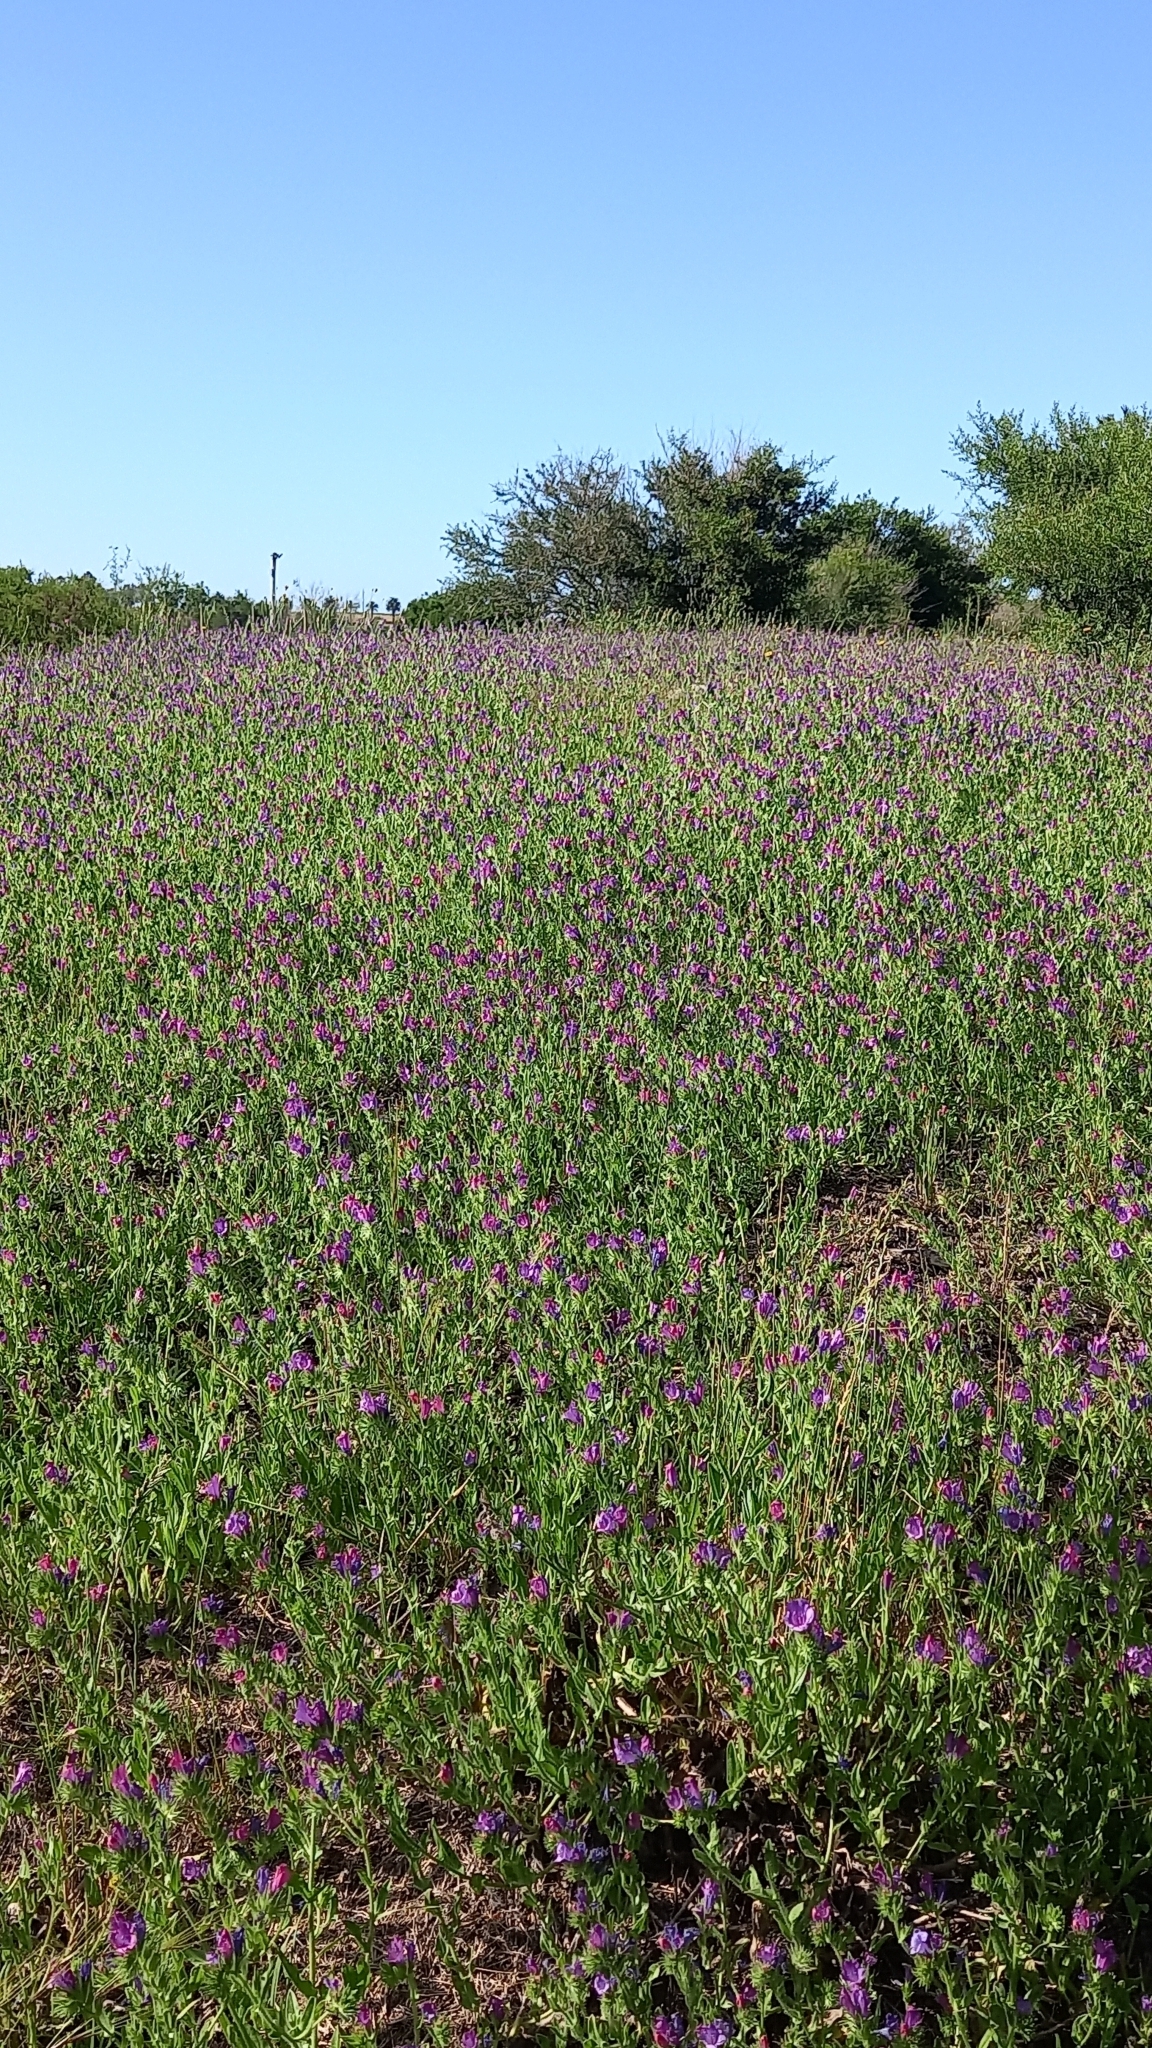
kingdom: Plantae
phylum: Tracheophyta
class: Magnoliopsida
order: Boraginales
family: Boraginaceae
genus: Echium
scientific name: Echium plantagineum
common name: Purple viper's-bugloss
